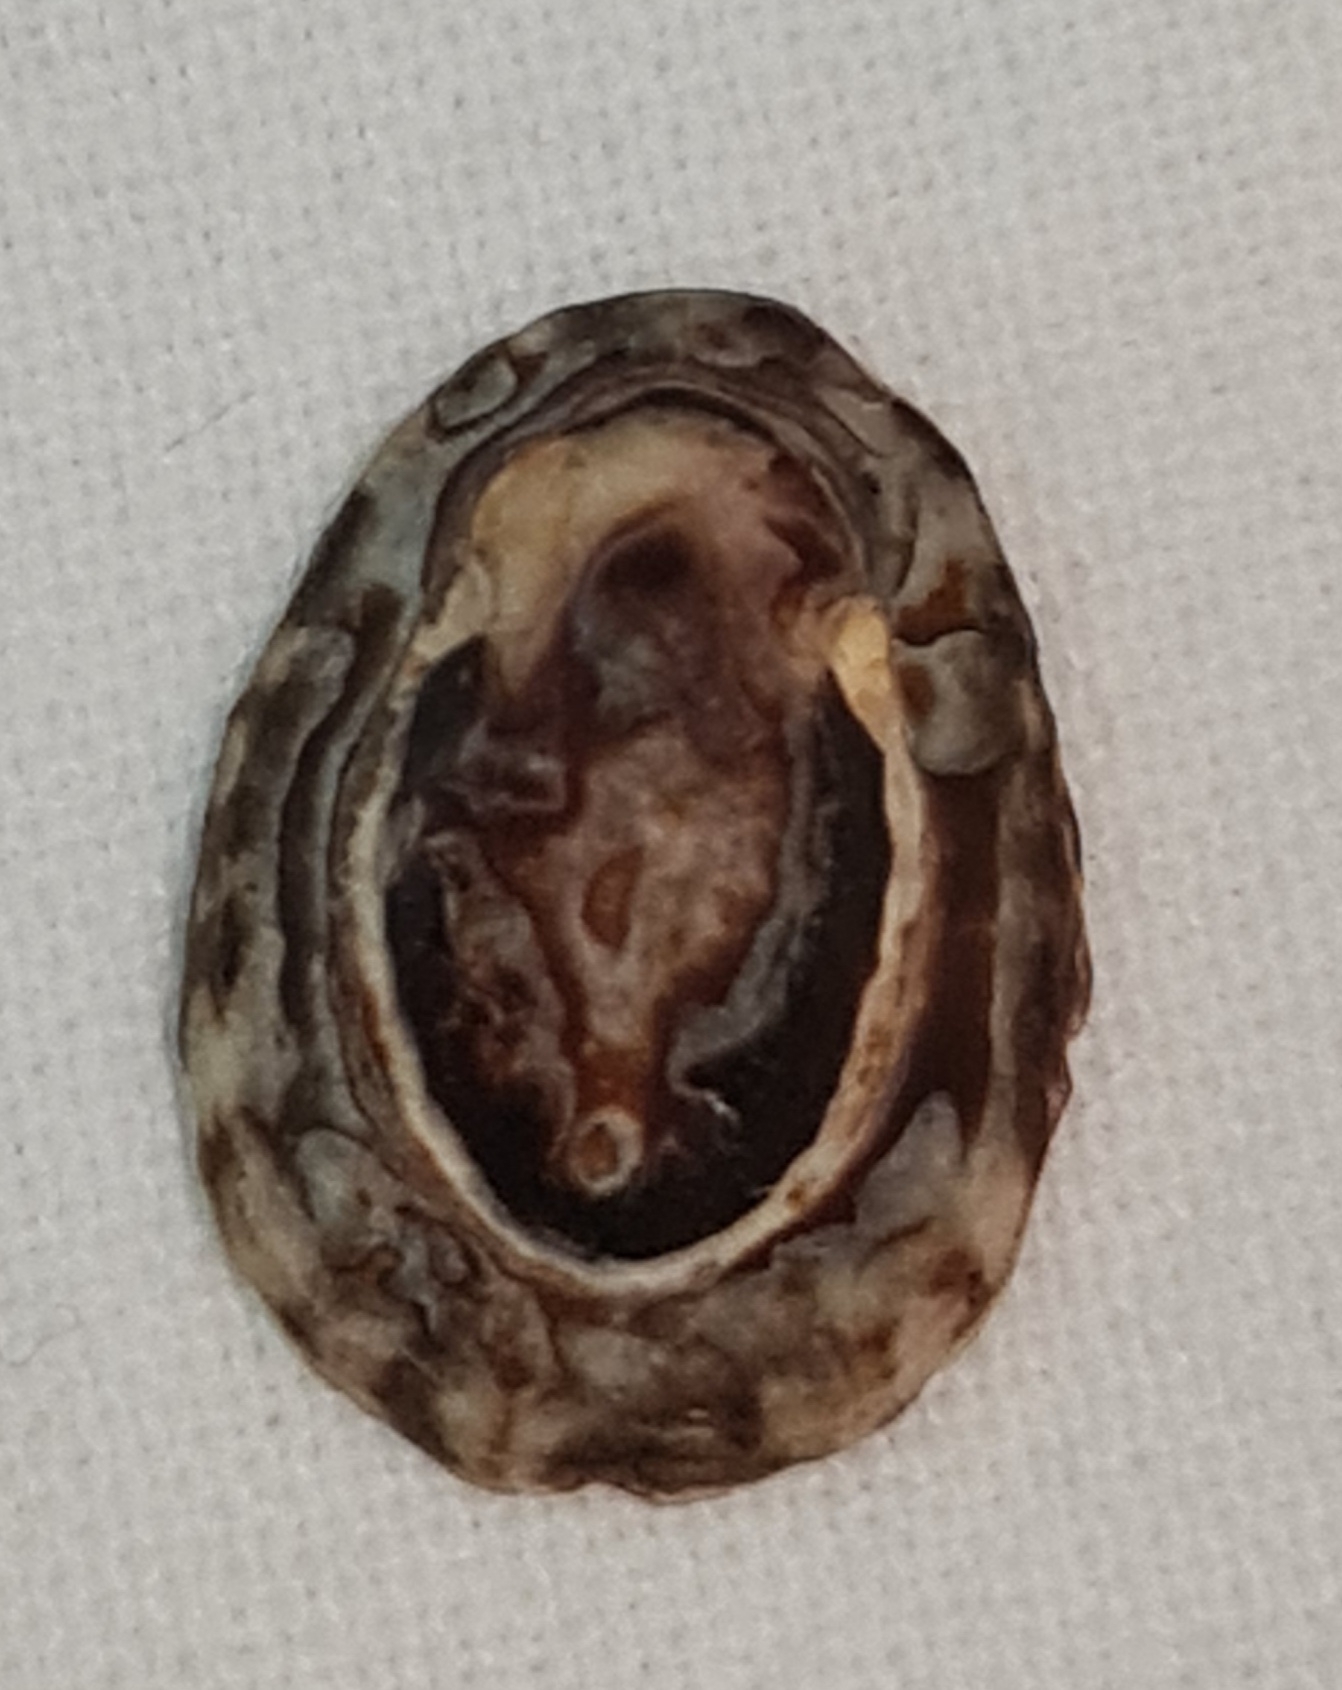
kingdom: Animalia
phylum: Mollusca
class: Gastropoda
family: Lottiidae
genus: Lottia
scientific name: Lottia subrugosa
